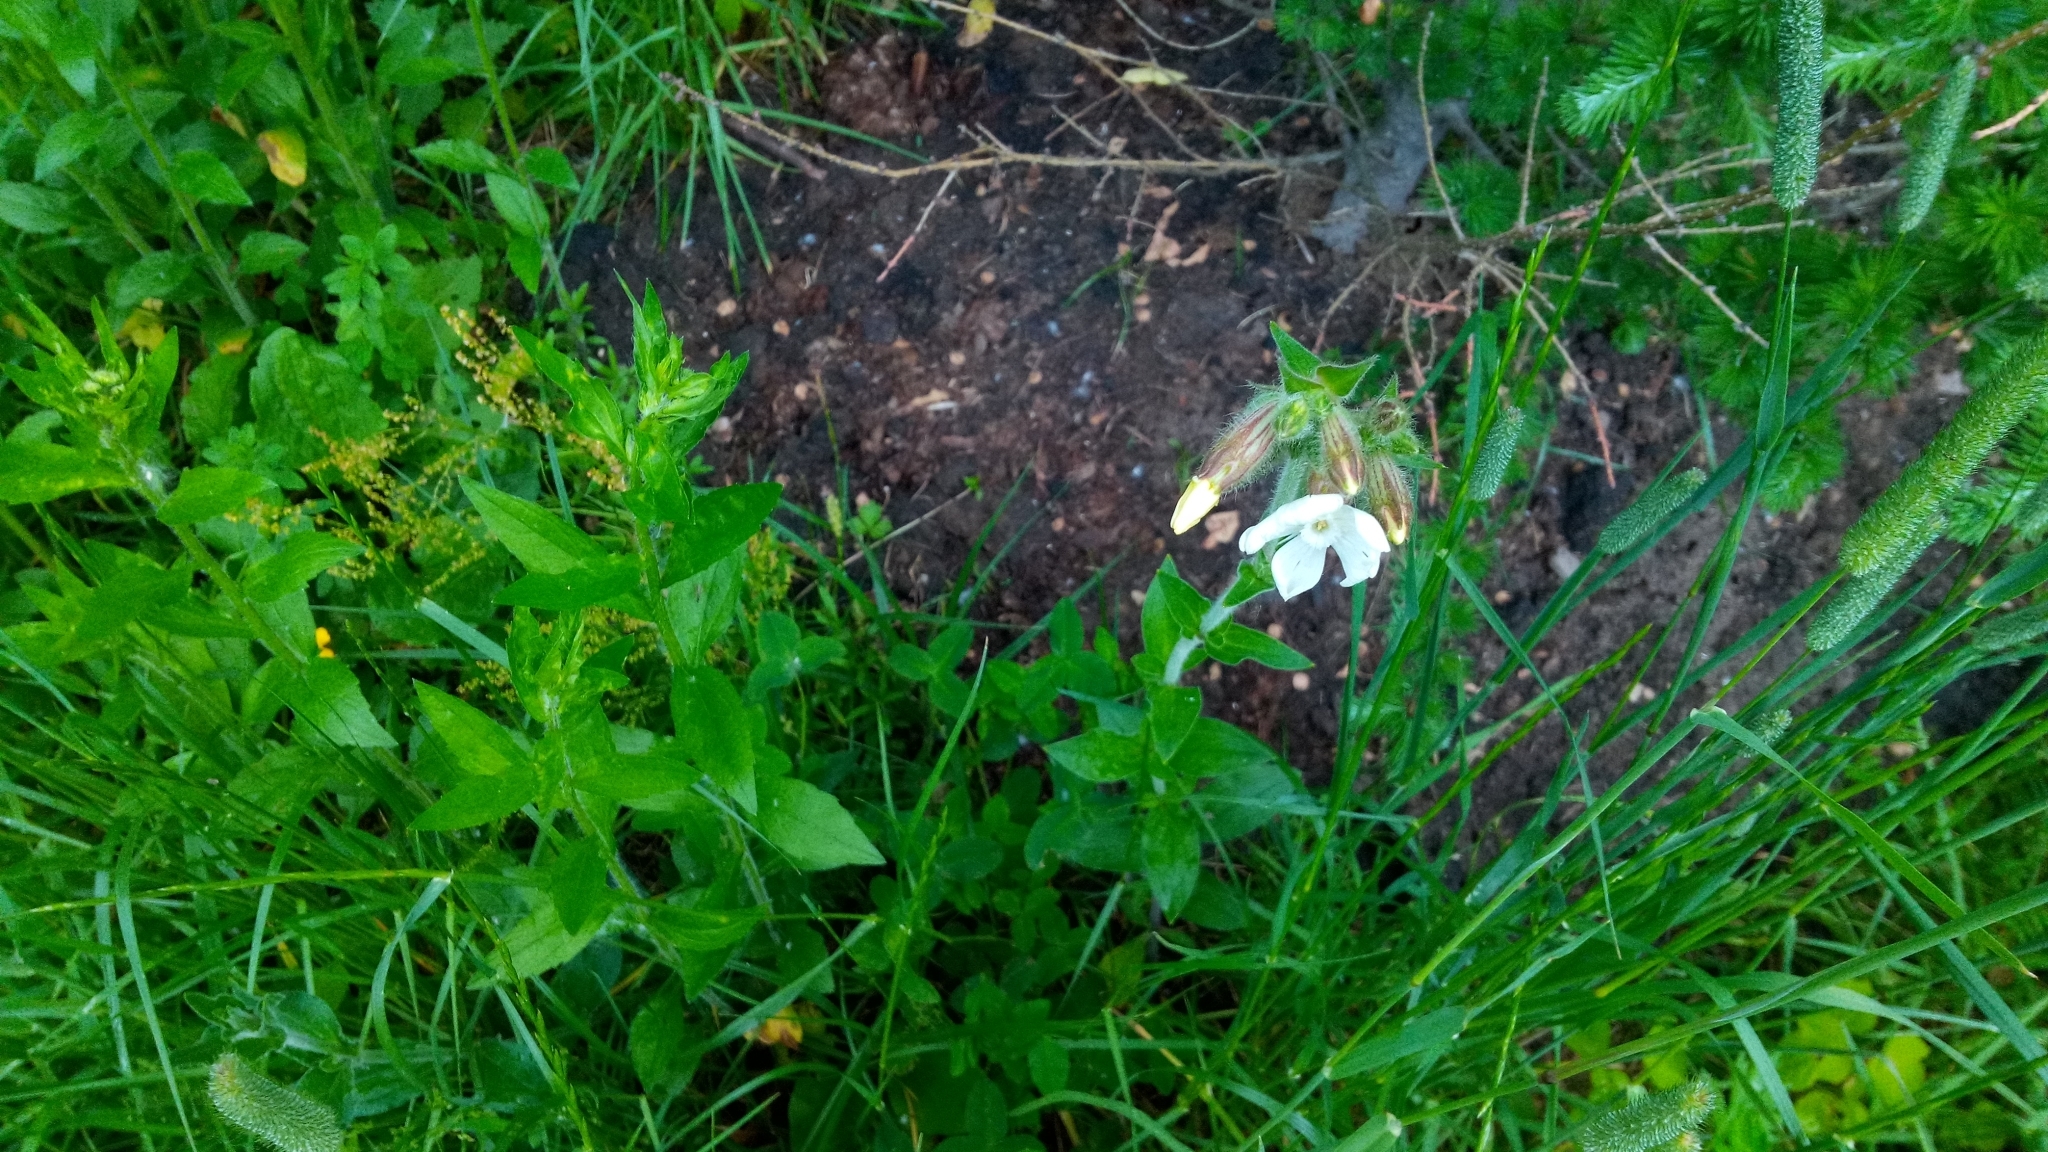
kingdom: Plantae
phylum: Tracheophyta
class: Magnoliopsida
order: Caryophyllales
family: Caryophyllaceae
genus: Silene
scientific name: Silene latifolia
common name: White campion
